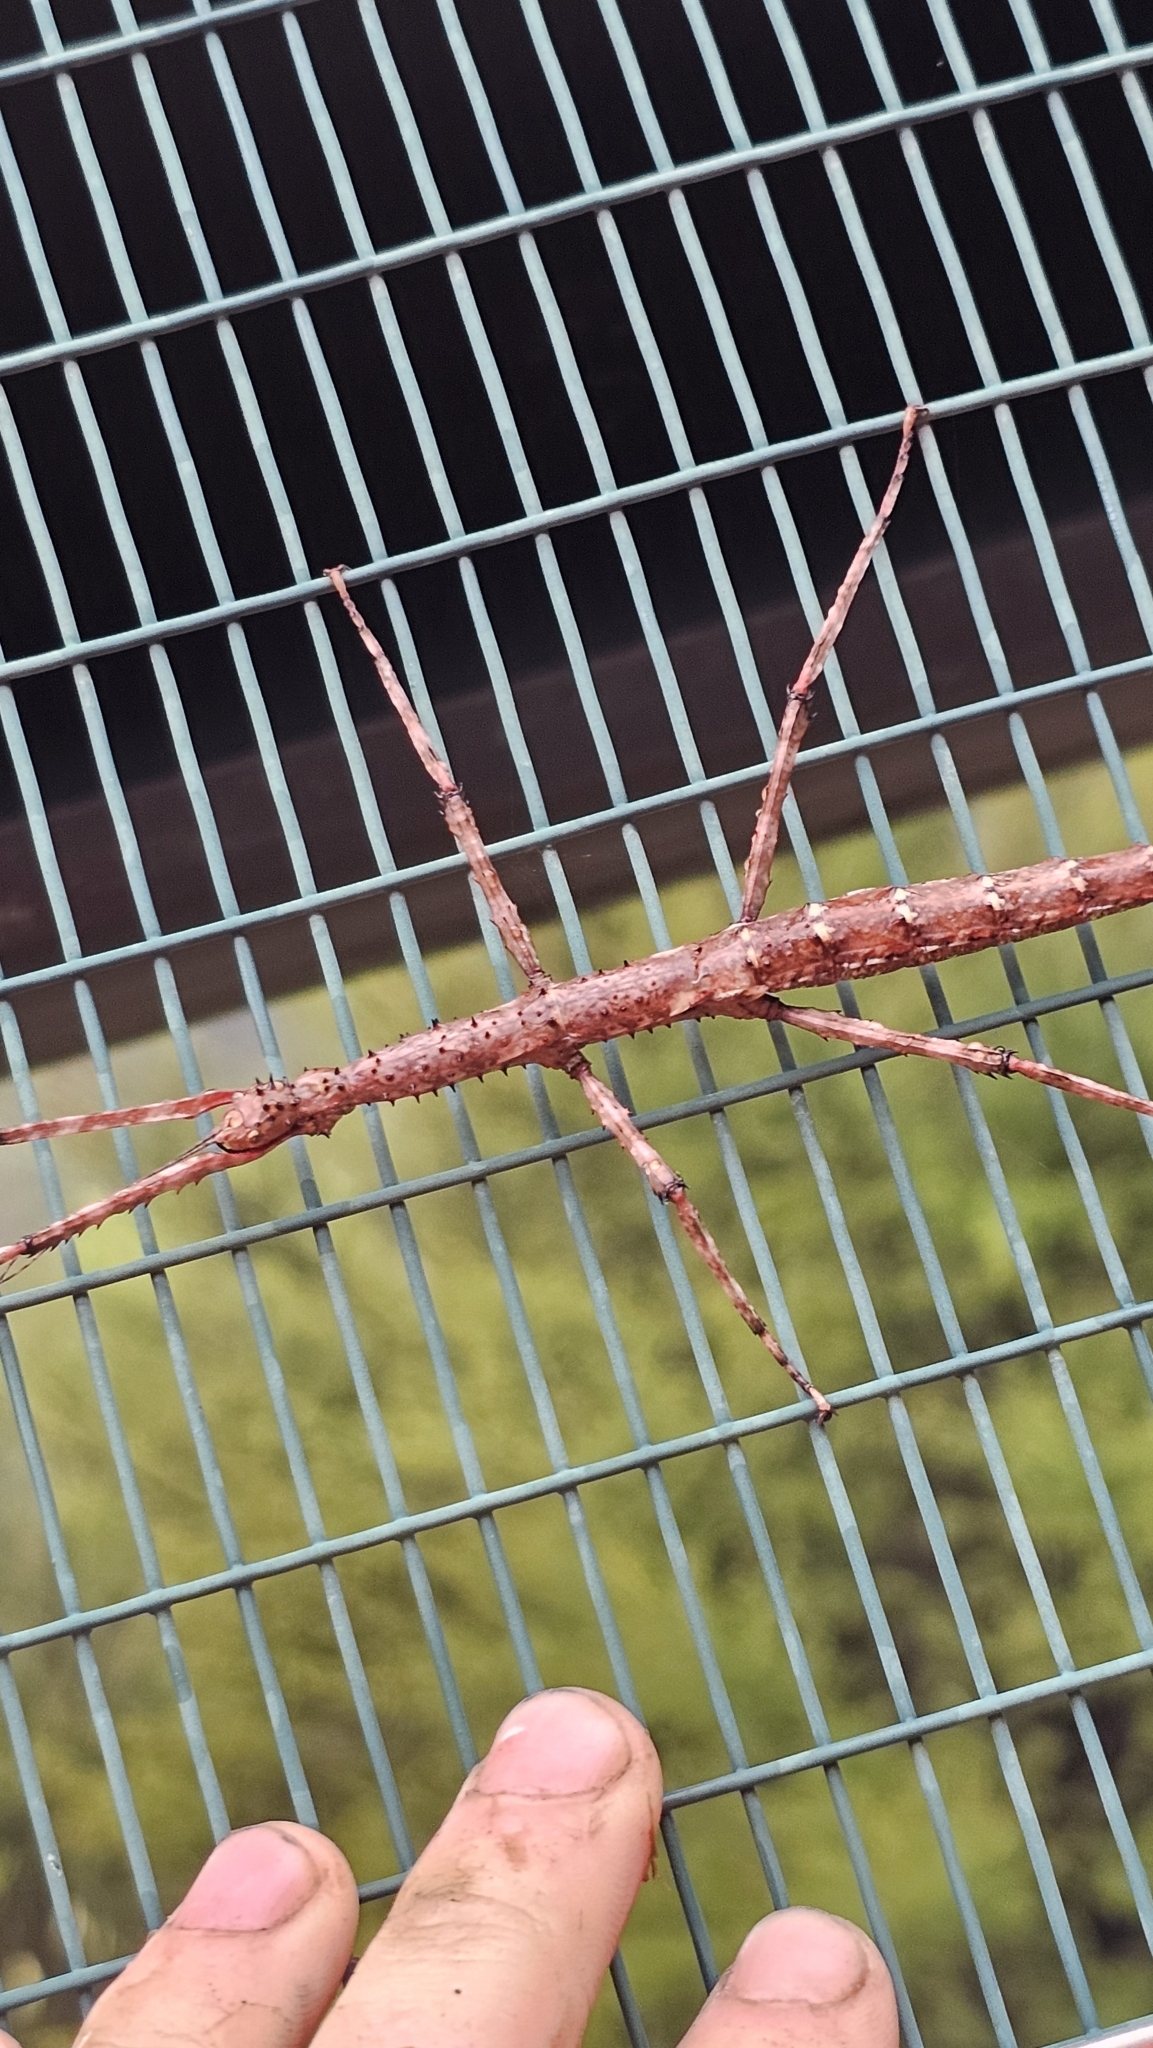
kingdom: Animalia
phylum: Arthropoda
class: Insecta
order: Phasmida
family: Phasmatidae
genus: Acanthoxyla
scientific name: Acanthoxyla prasina
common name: Black-spined stick insect
